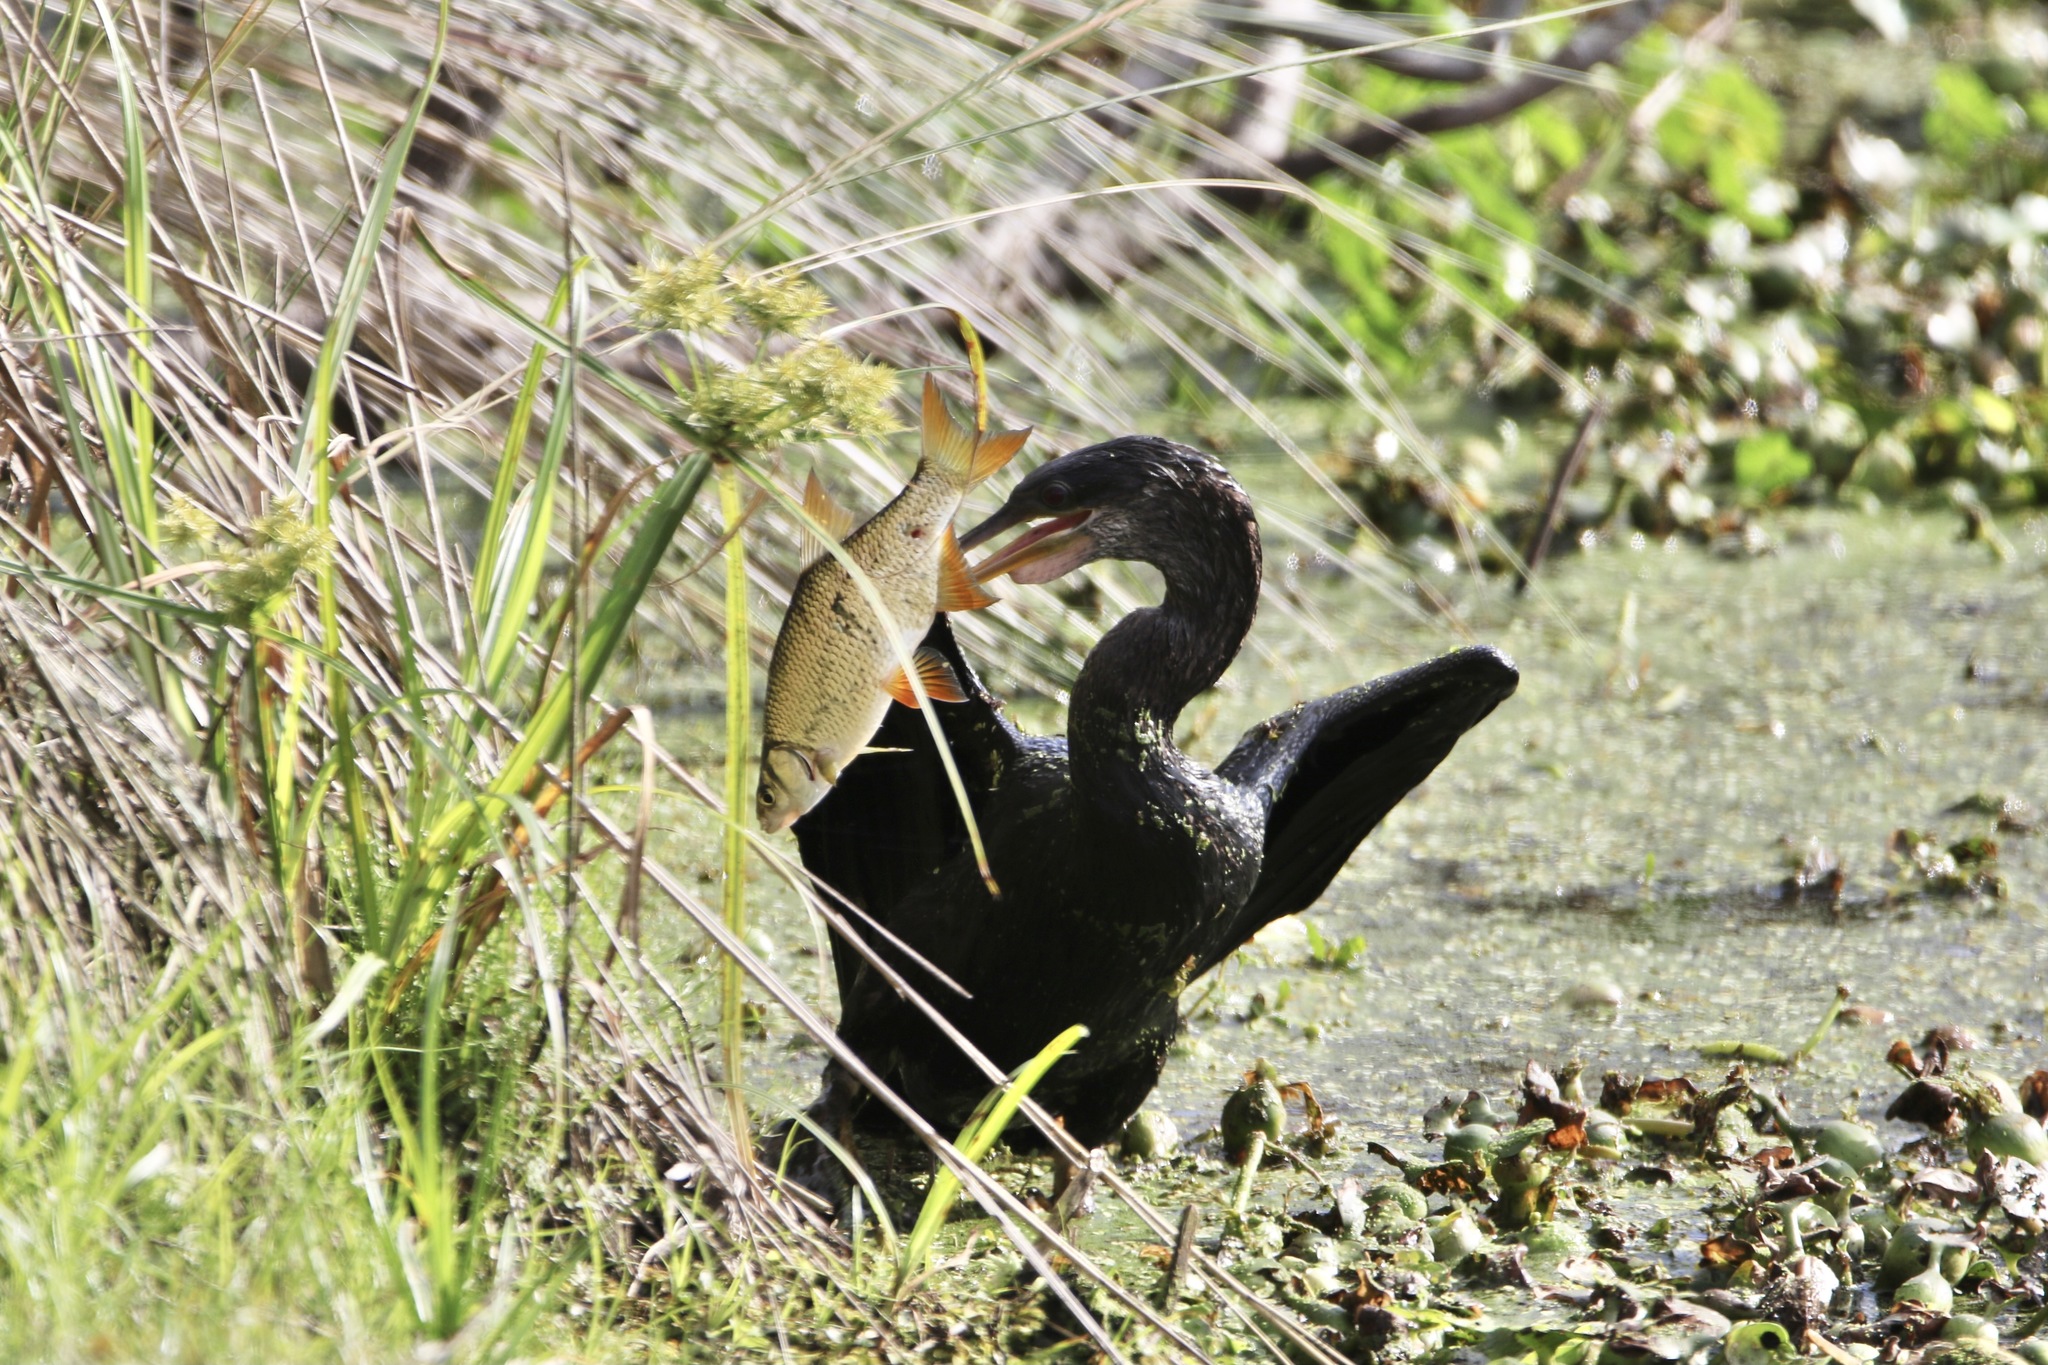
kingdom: Animalia
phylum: Chordata
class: Aves
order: Suliformes
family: Anhingidae
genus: Anhinga
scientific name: Anhinga anhinga
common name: Anhinga
